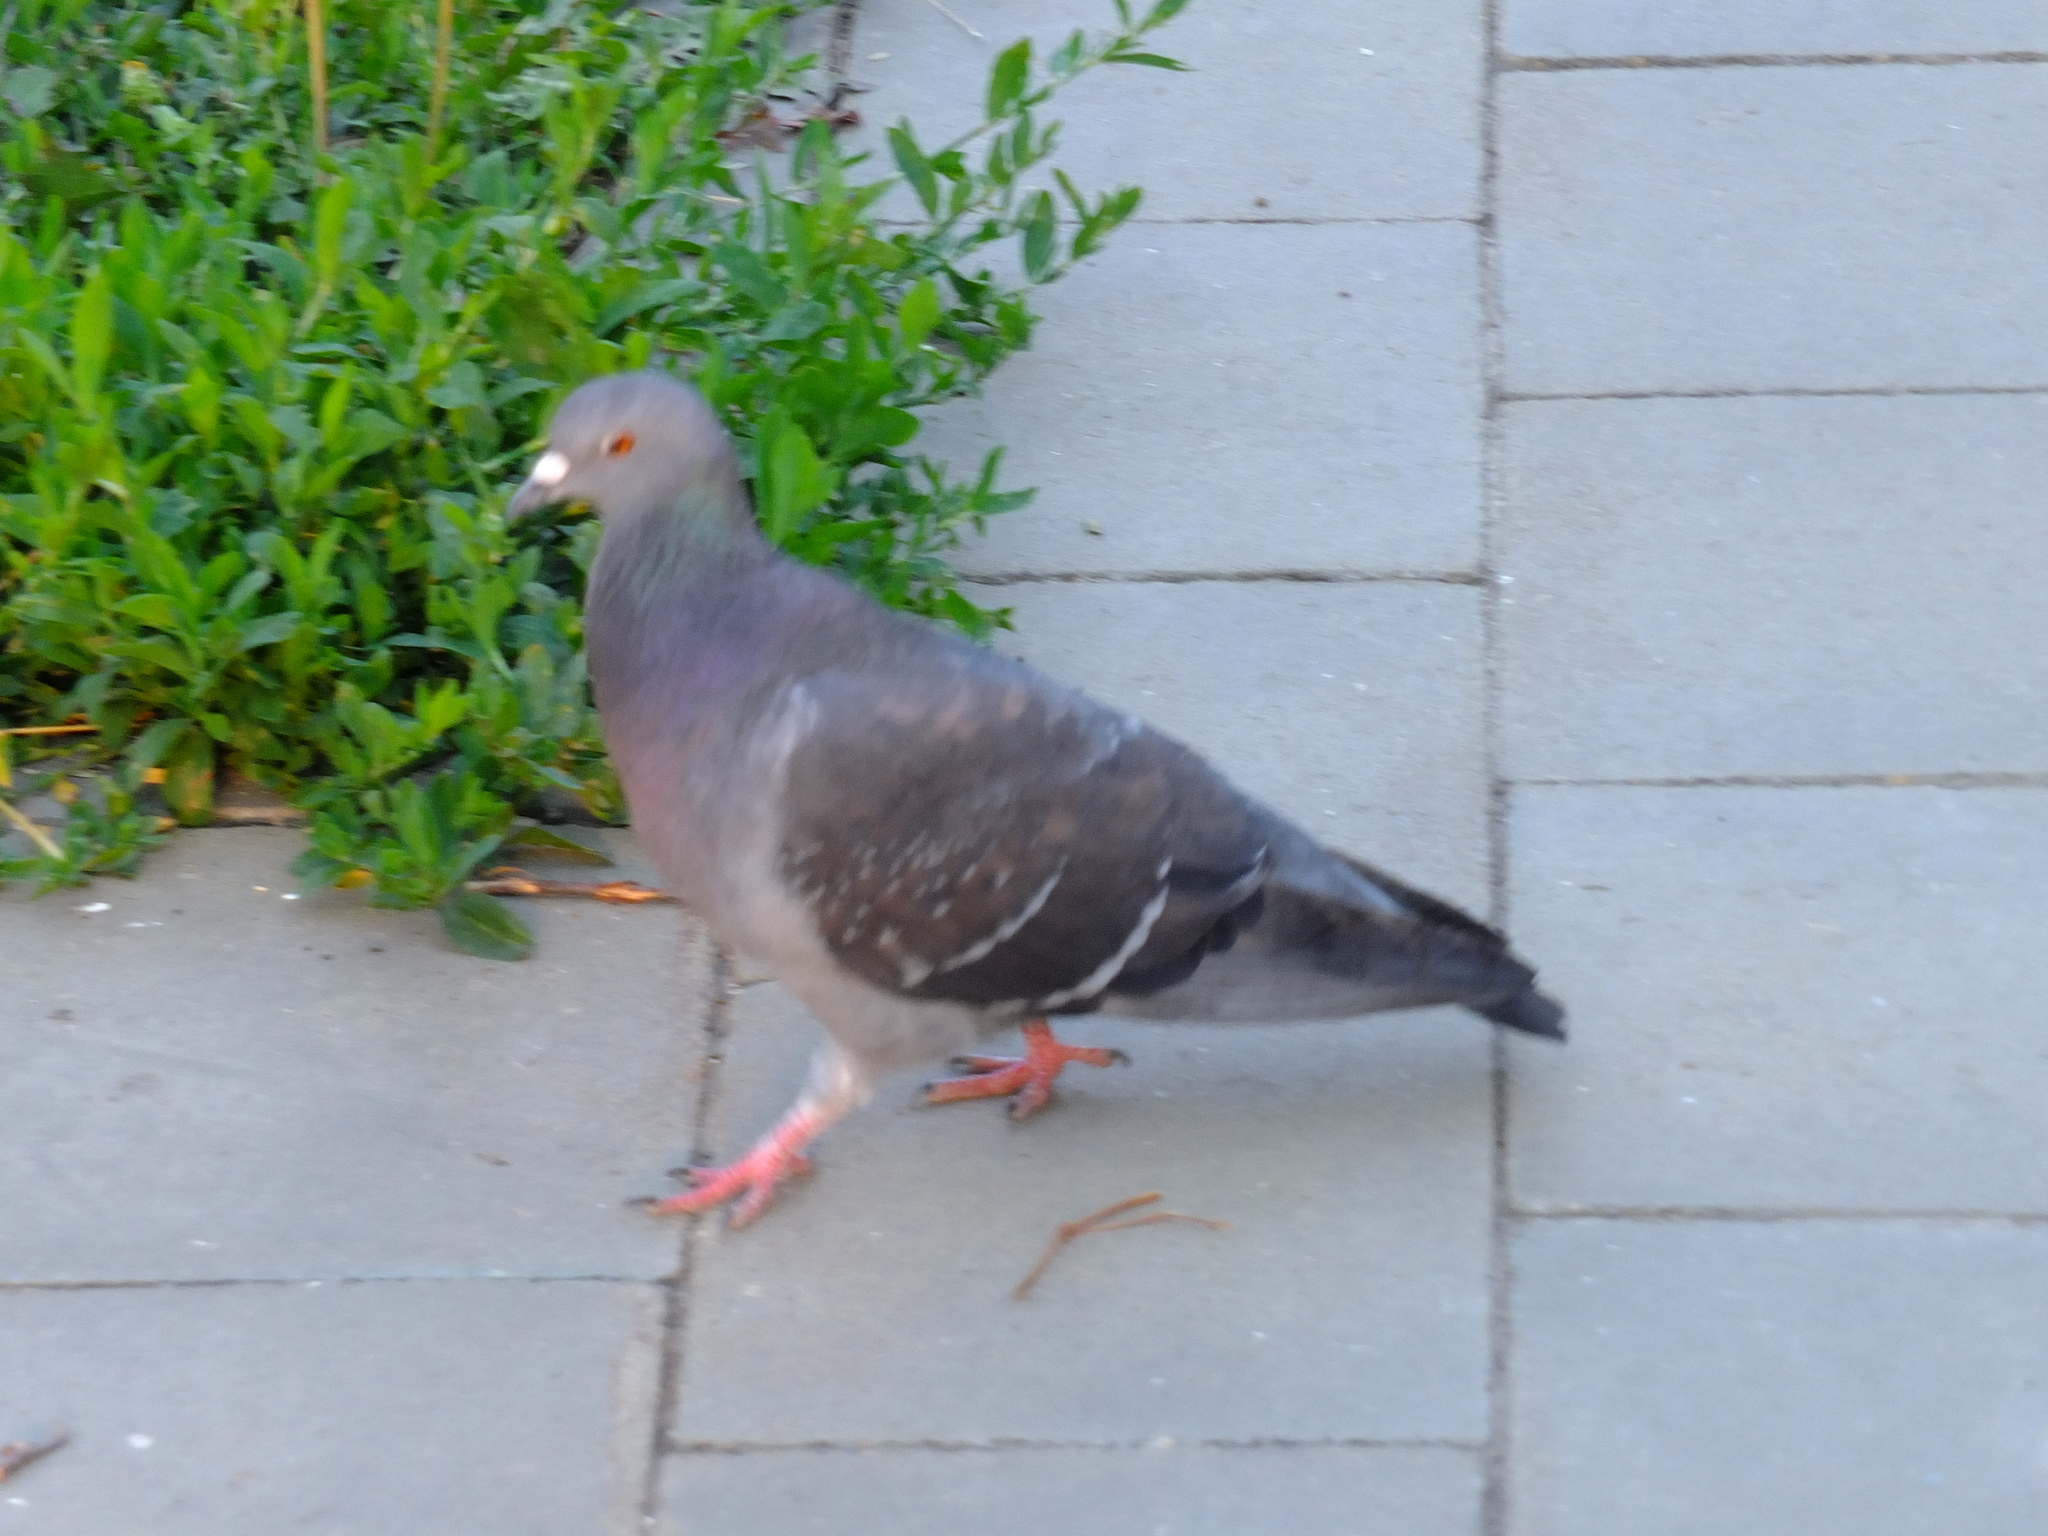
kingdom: Animalia
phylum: Chordata
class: Aves
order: Columbiformes
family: Columbidae
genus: Columba
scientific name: Columba livia
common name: Rock pigeon
